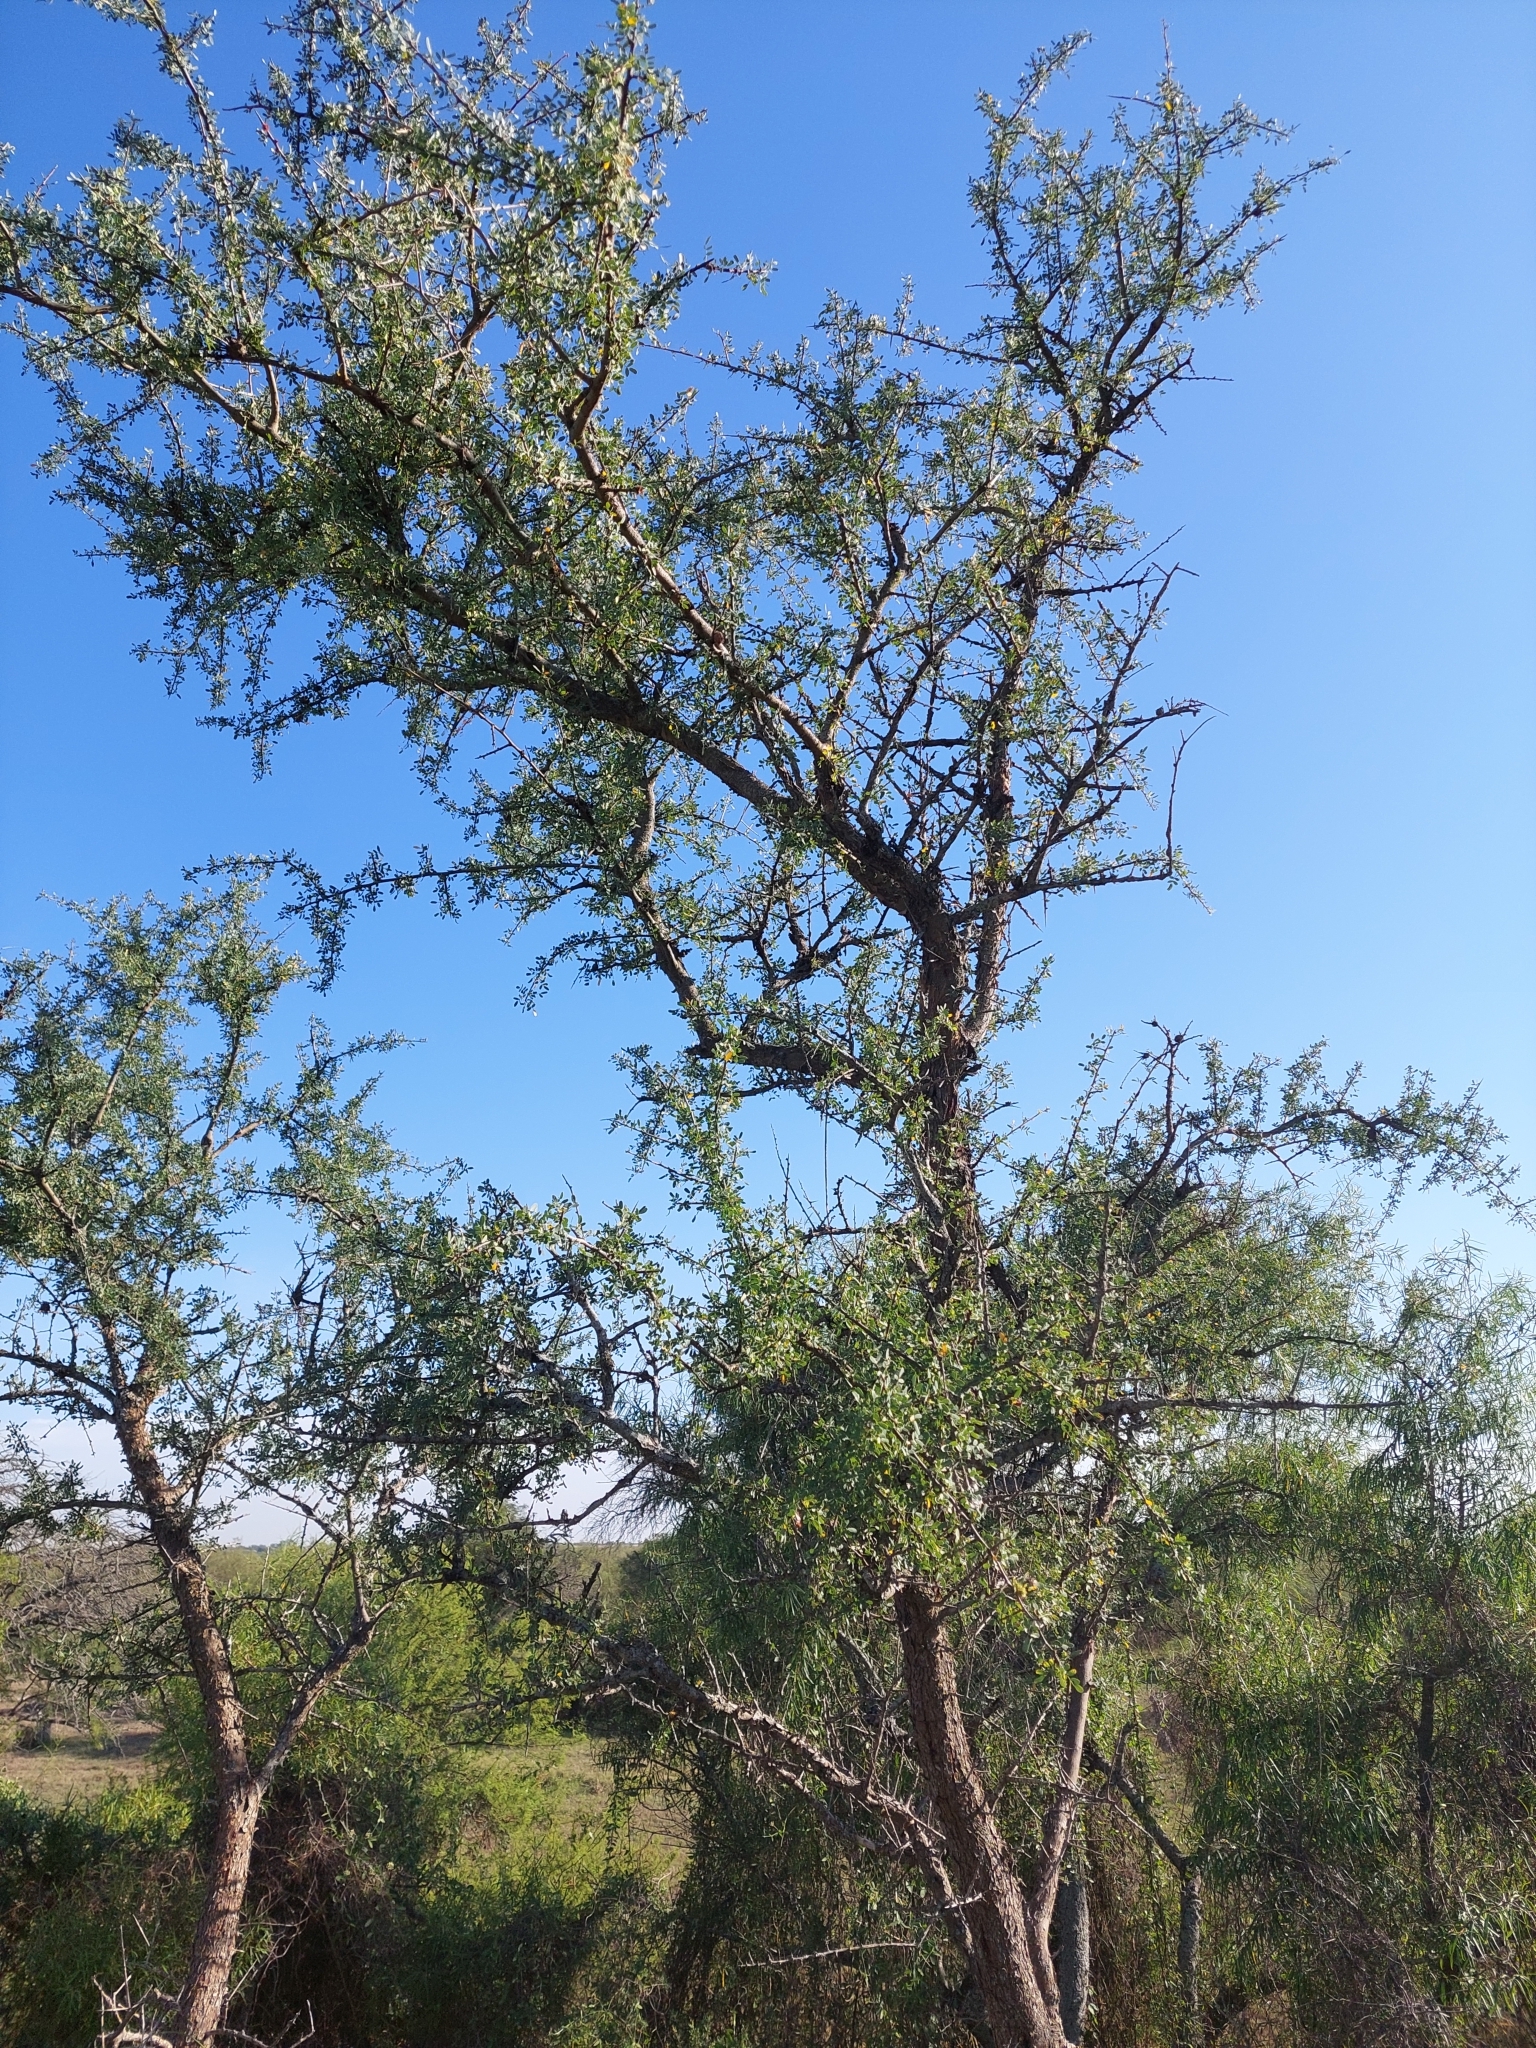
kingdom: Plantae
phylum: Tracheophyta
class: Magnoliopsida
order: Fabales
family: Fabaceae
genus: Geoffroea
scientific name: Geoffroea decorticans
